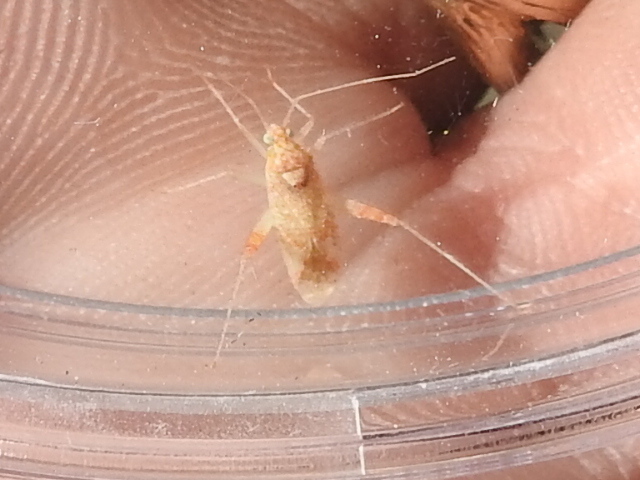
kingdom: Animalia
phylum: Arthropoda
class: Insecta
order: Hemiptera
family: Miridae
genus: Phytocoris
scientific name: Phytocoris kiowa
